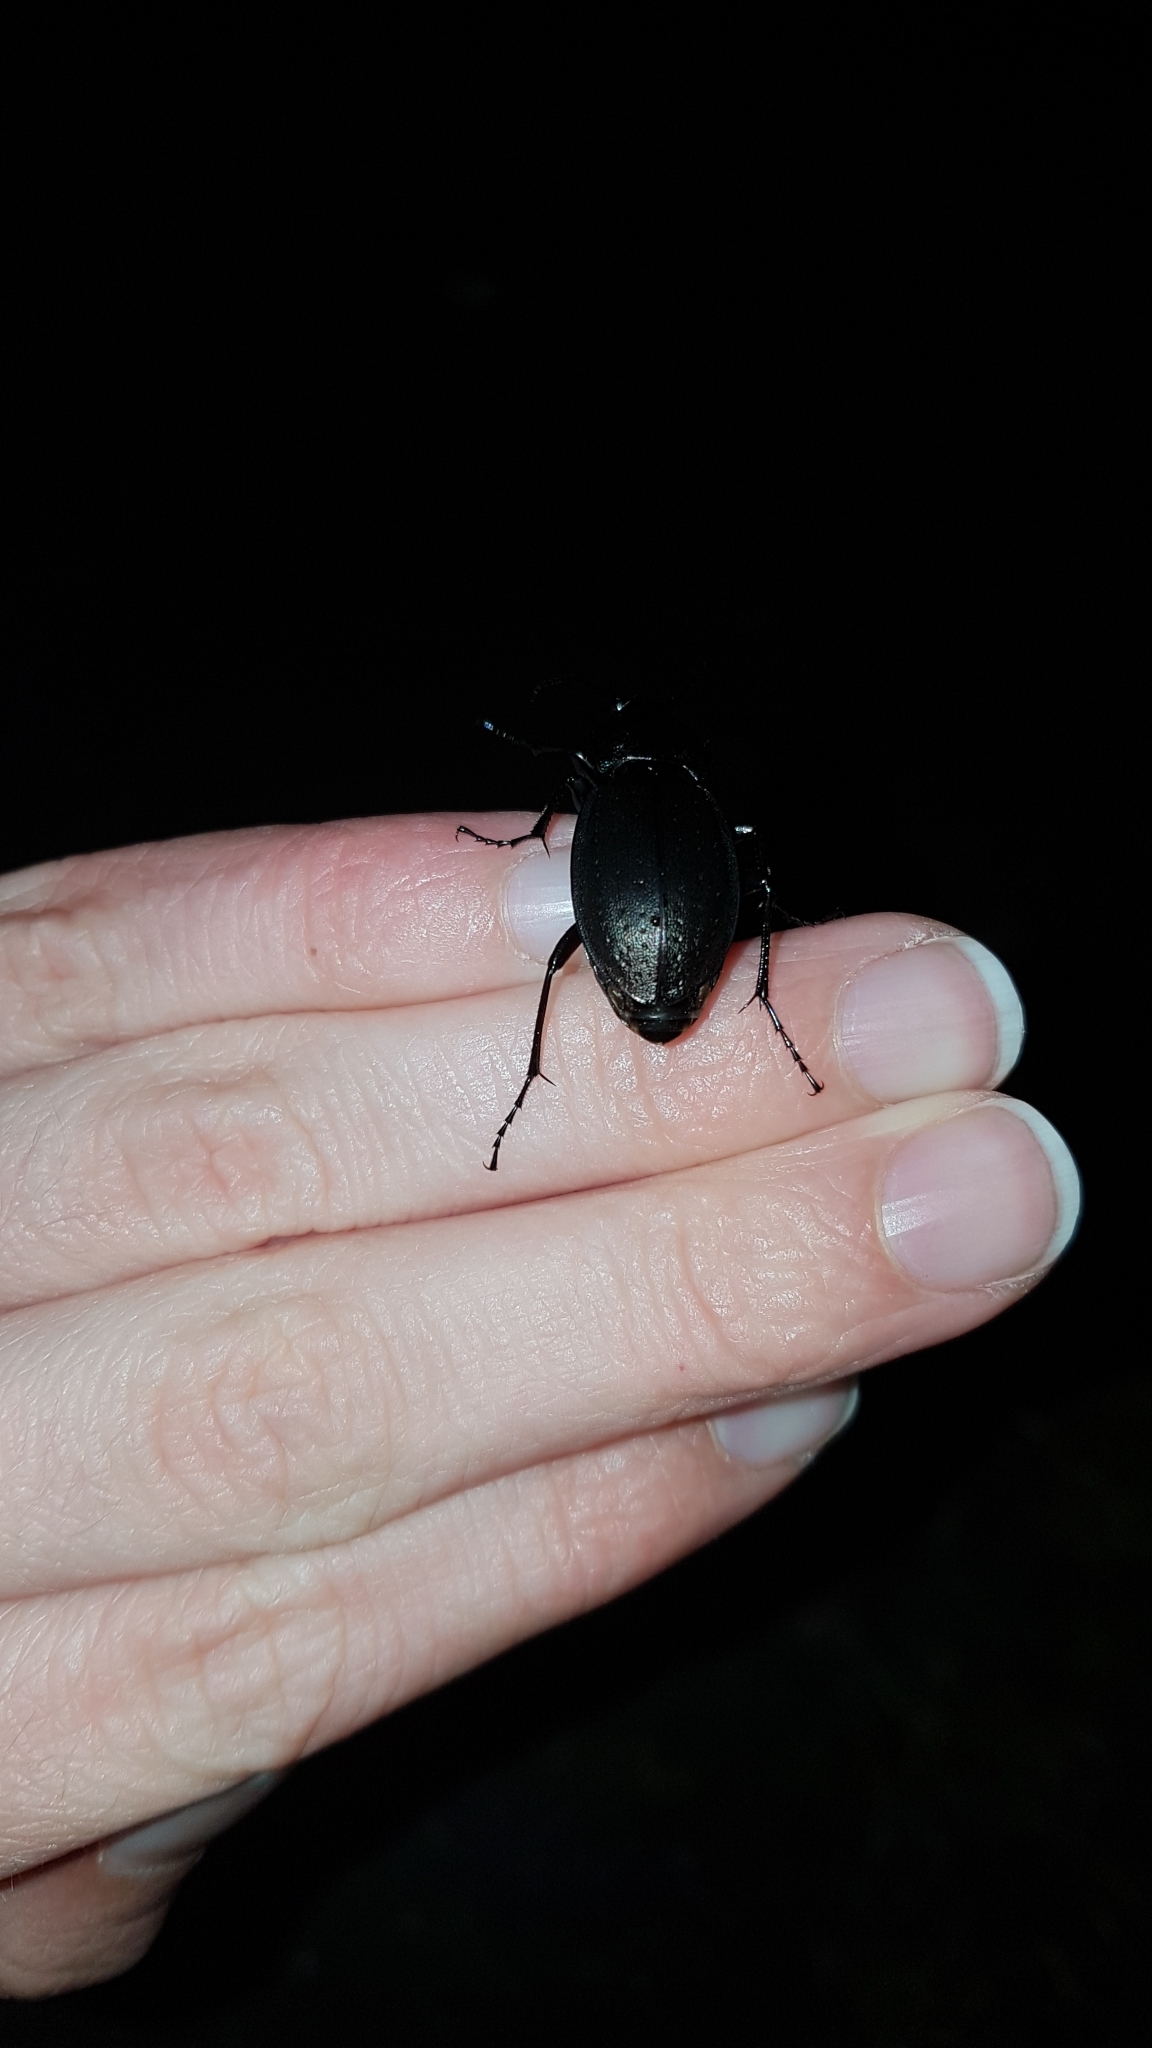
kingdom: Animalia
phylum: Arthropoda
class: Insecta
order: Coleoptera
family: Carabidae
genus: Carabus
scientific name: Carabus nemoralis
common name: European ground beetle
